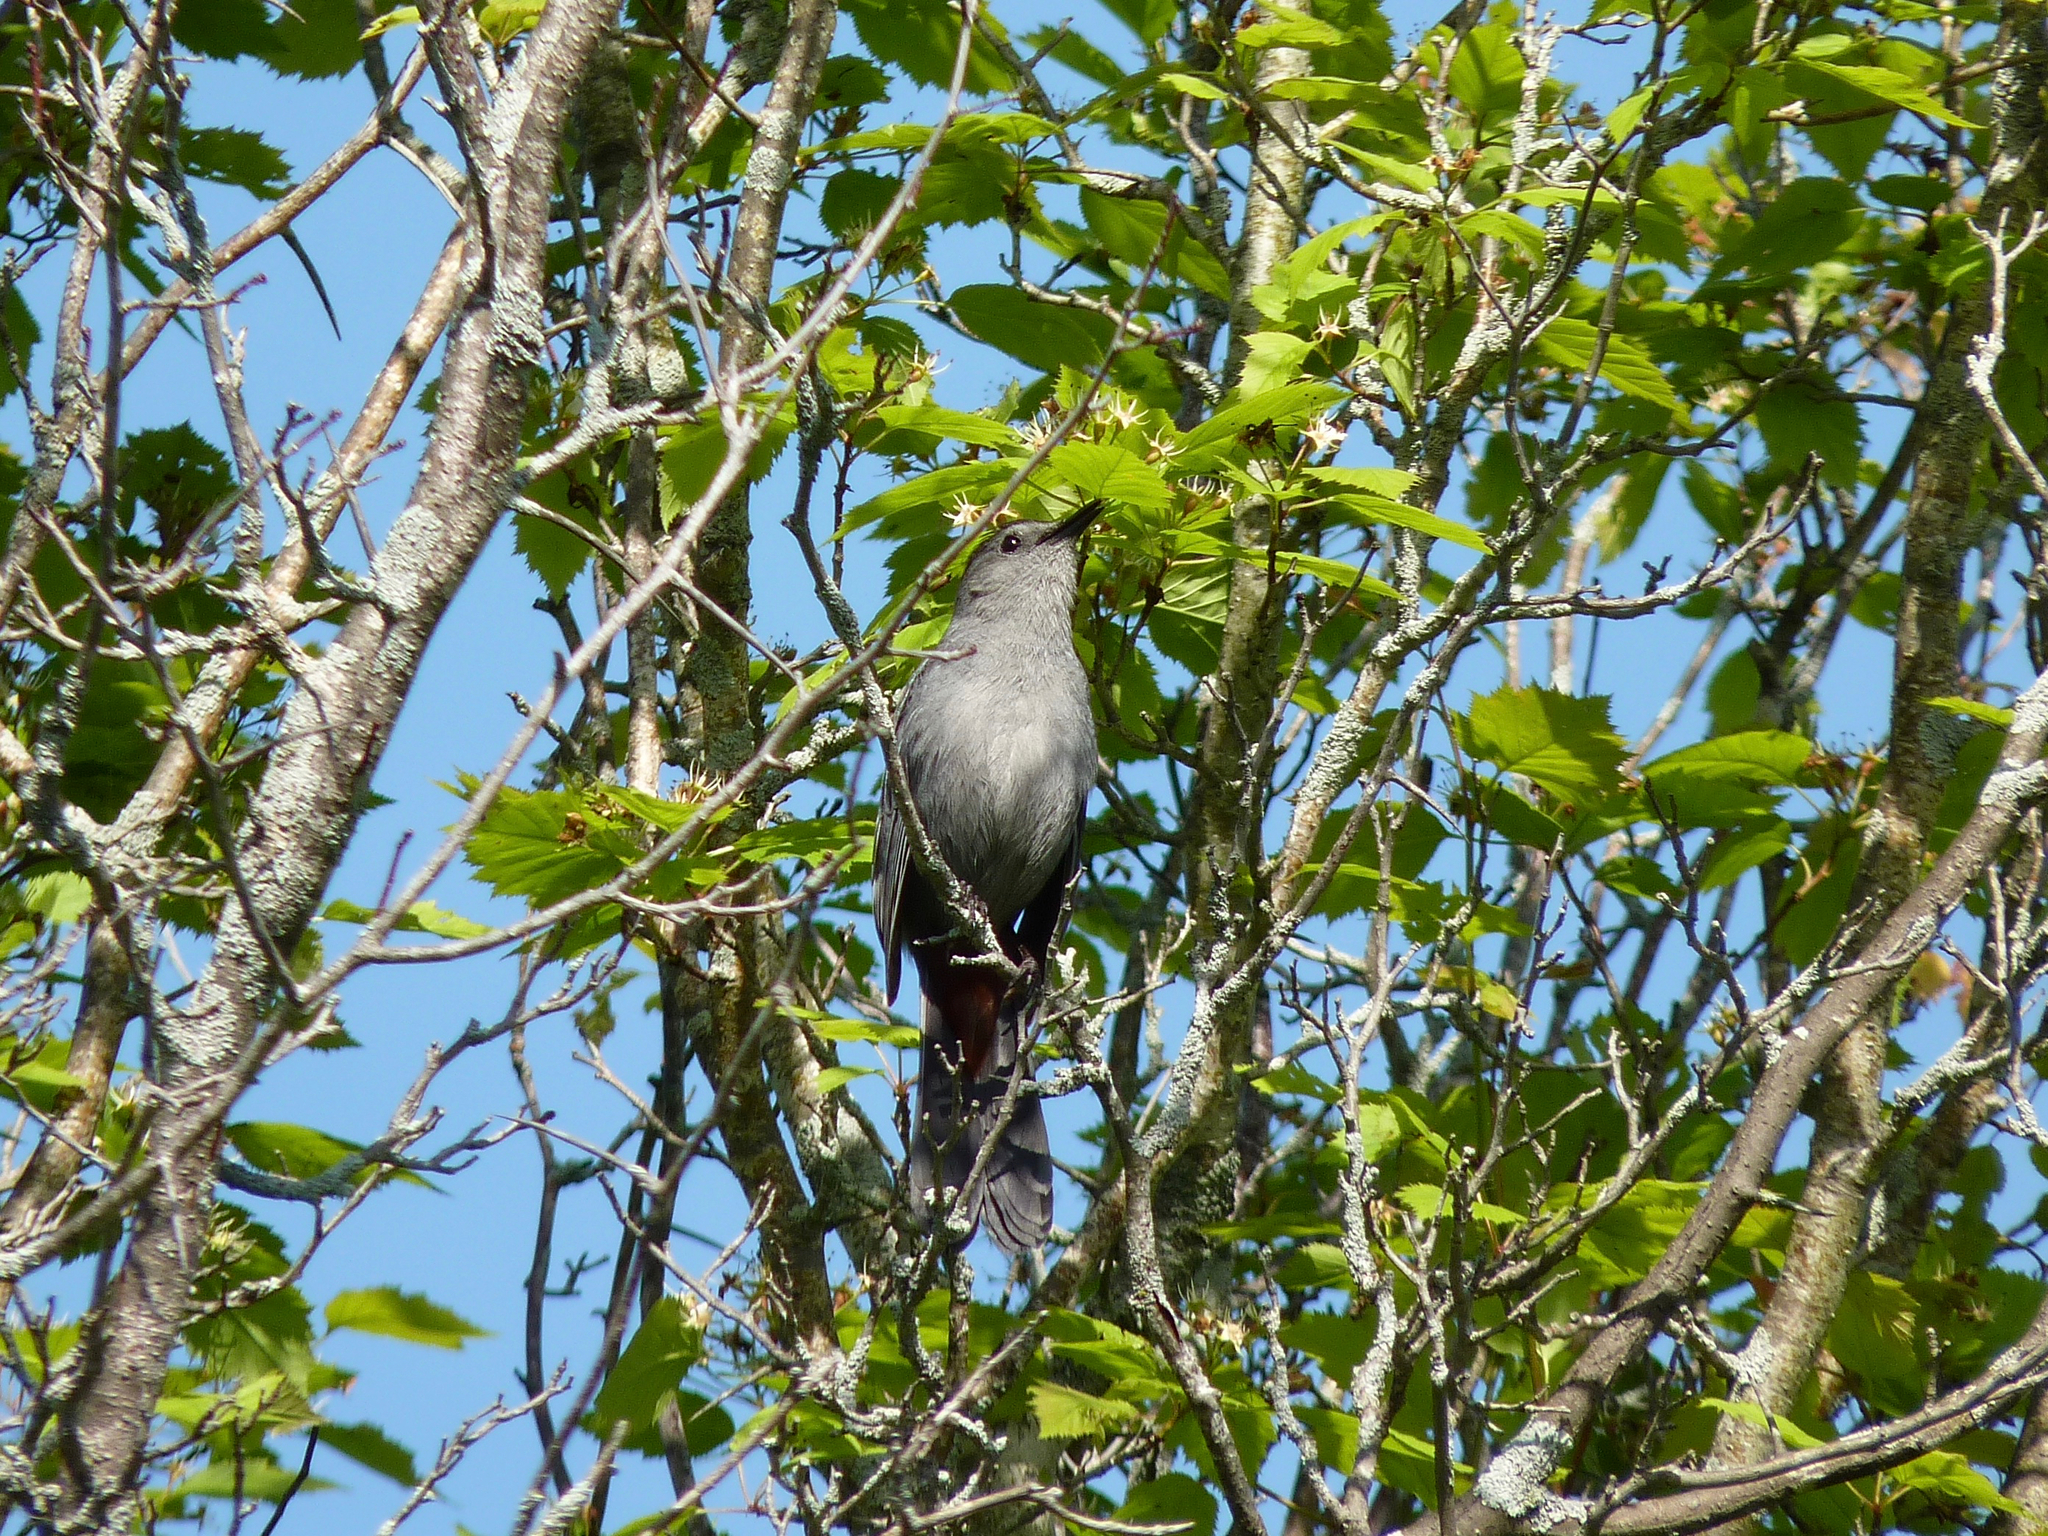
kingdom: Animalia
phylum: Chordata
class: Aves
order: Passeriformes
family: Mimidae
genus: Dumetella
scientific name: Dumetella carolinensis
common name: Gray catbird
